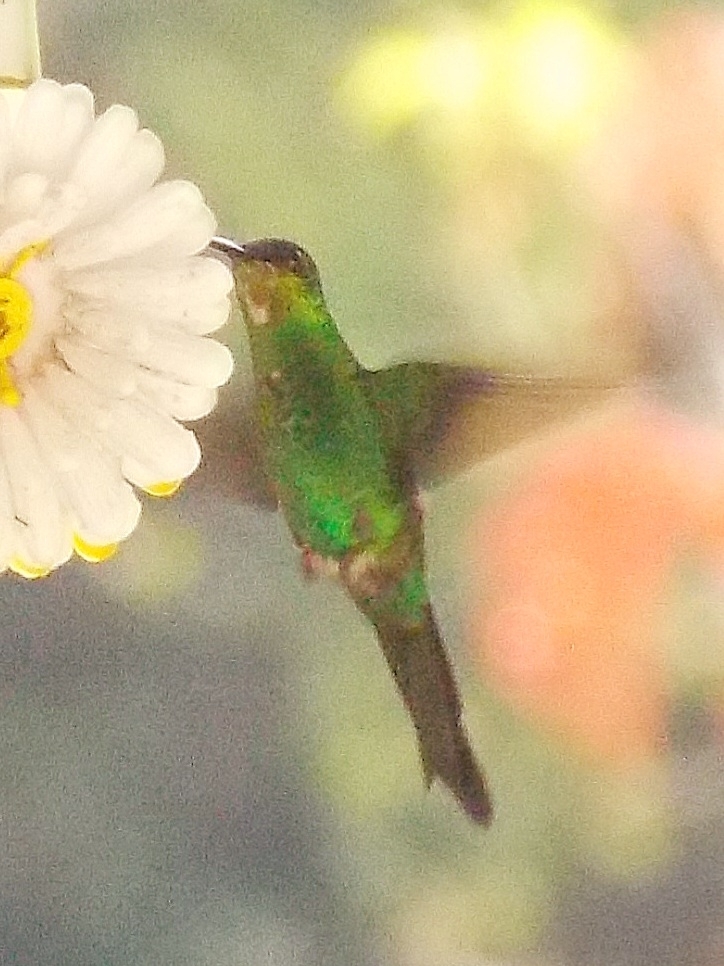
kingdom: Animalia
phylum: Chordata
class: Aves
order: Apodiformes
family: Trochilidae
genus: Thalurania
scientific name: Thalurania glaucopis
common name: Violet-capped woodnymph
